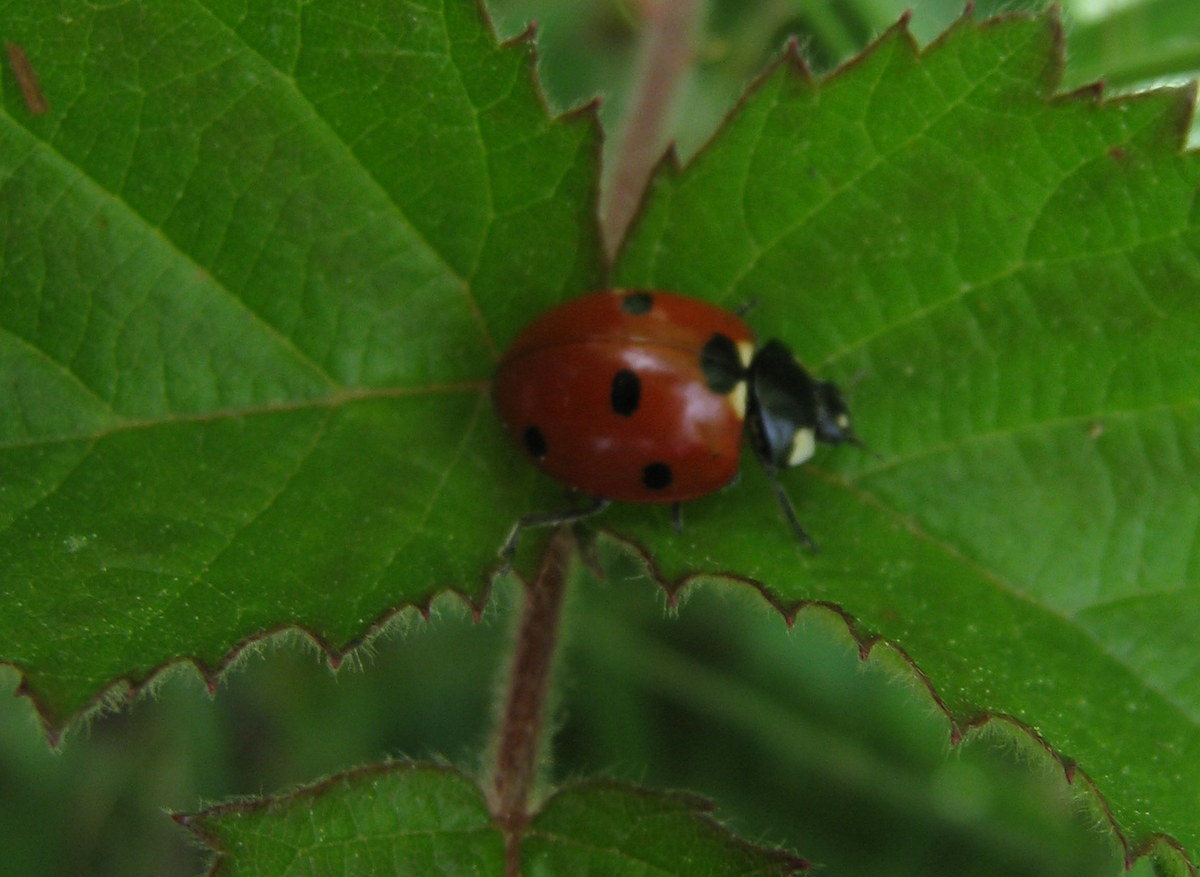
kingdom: Animalia
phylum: Arthropoda
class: Insecta
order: Coleoptera
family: Coccinellidae
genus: Coccinella
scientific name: Coccinella septempunctata
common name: Sevenspotted lady beetle
